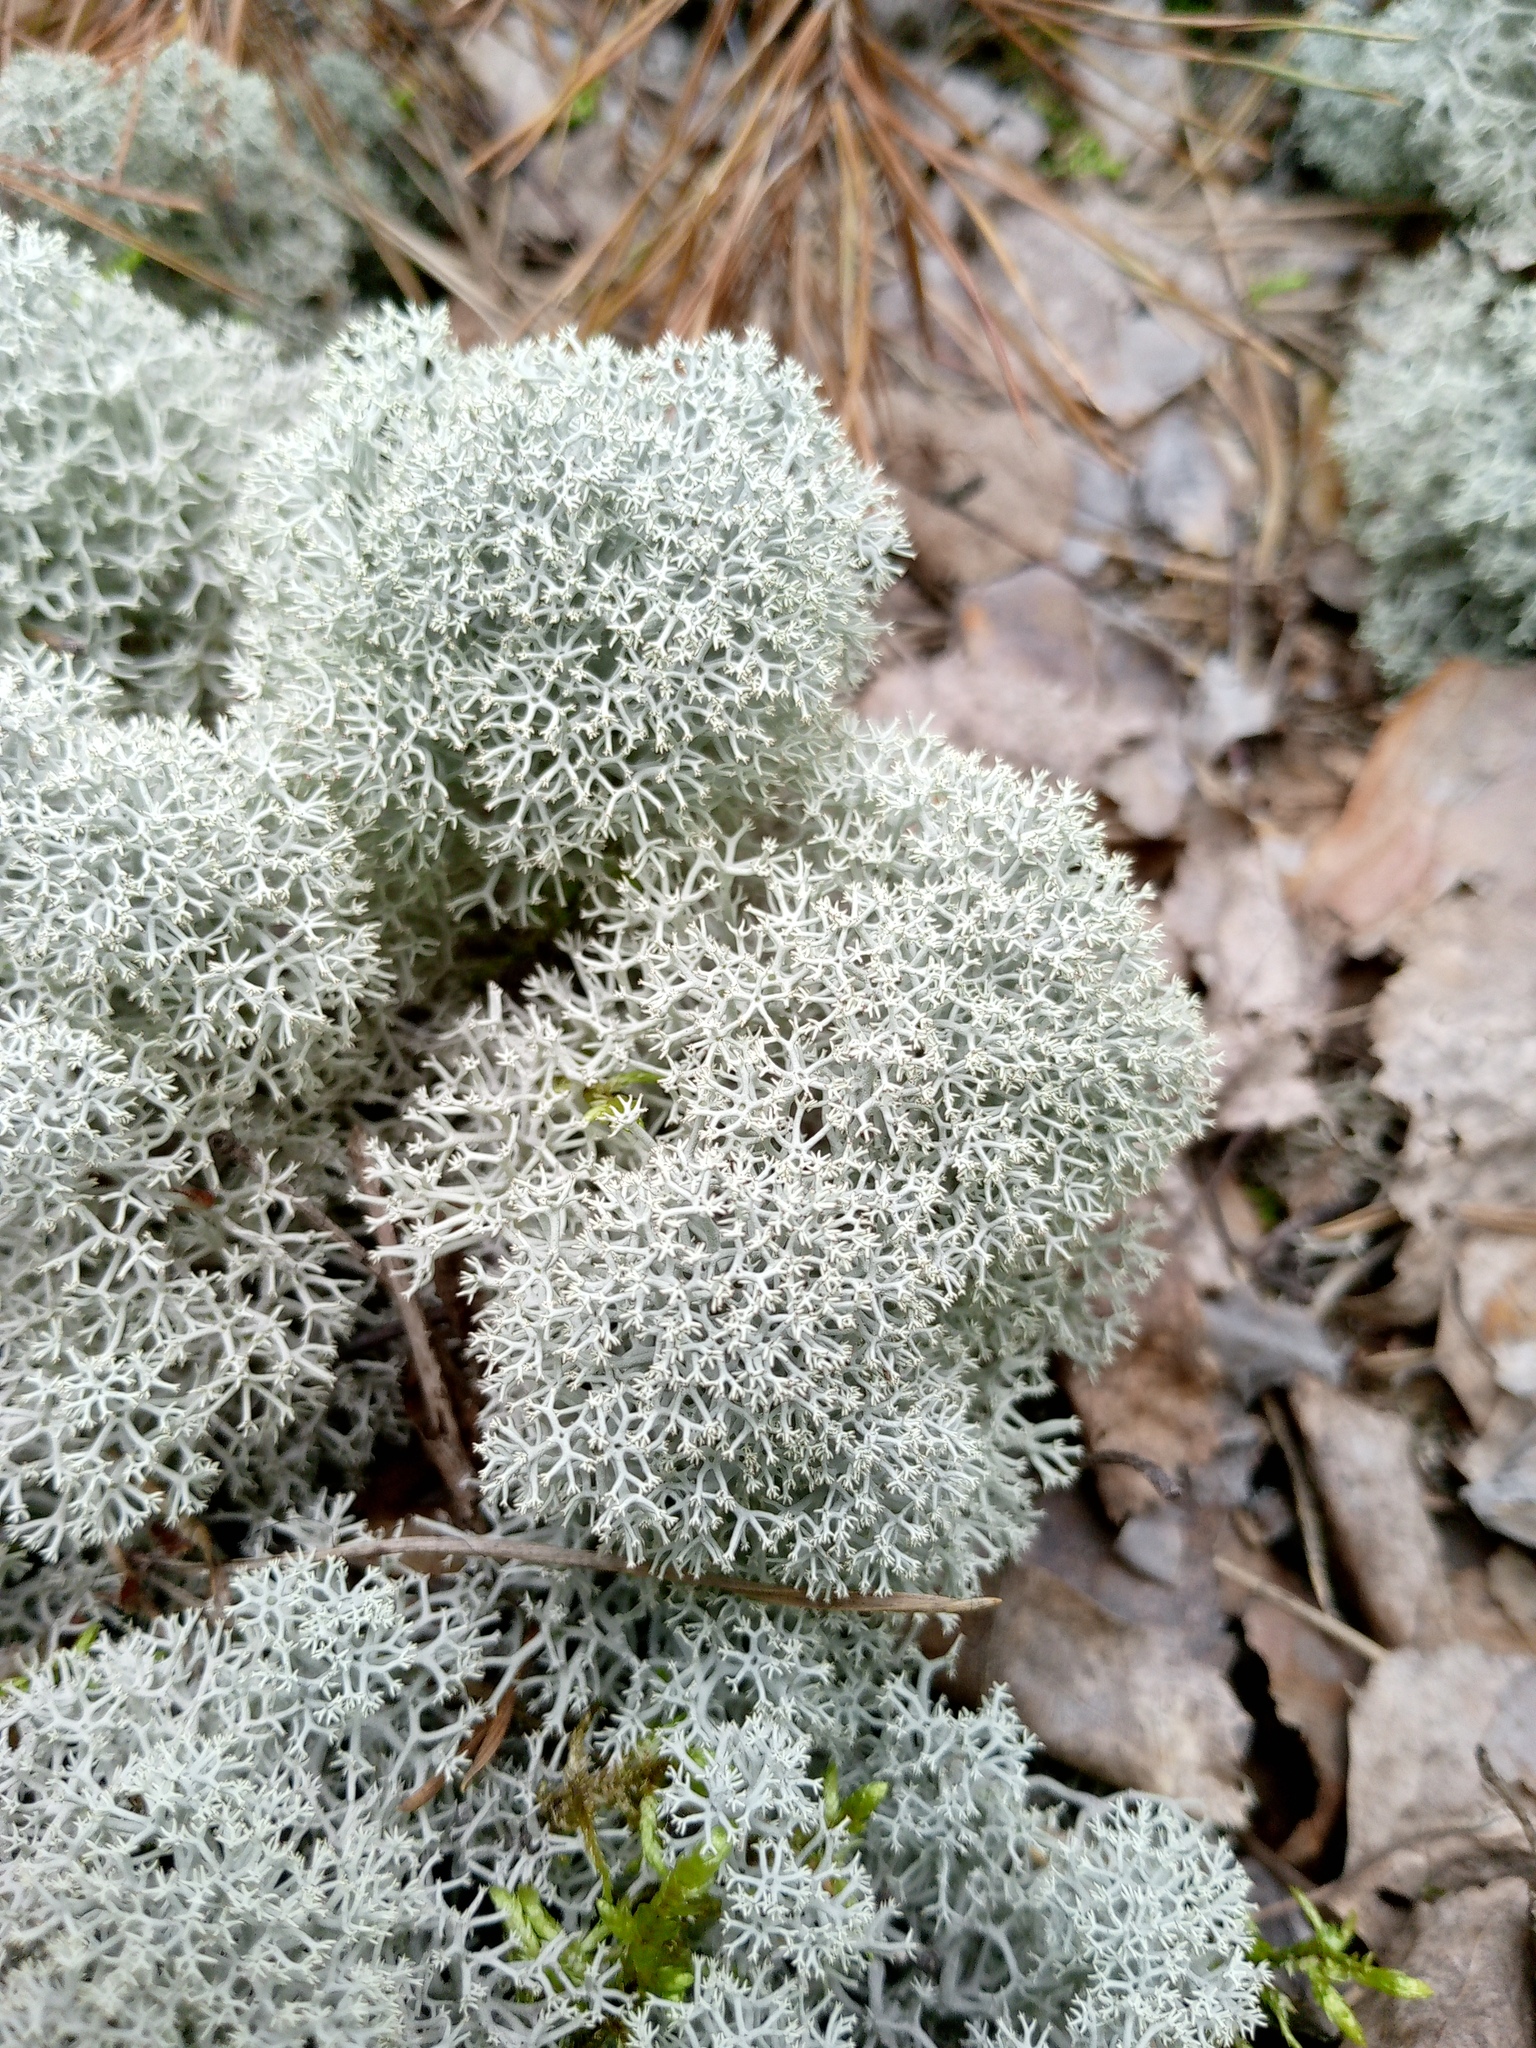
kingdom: Fungi
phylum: Ascomycota
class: Lecanoromycetes
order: Lecanorales
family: Cladoniaceae
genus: Cladonia
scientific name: Cladonia stellaris
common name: Star-tipped reindeer lichen
